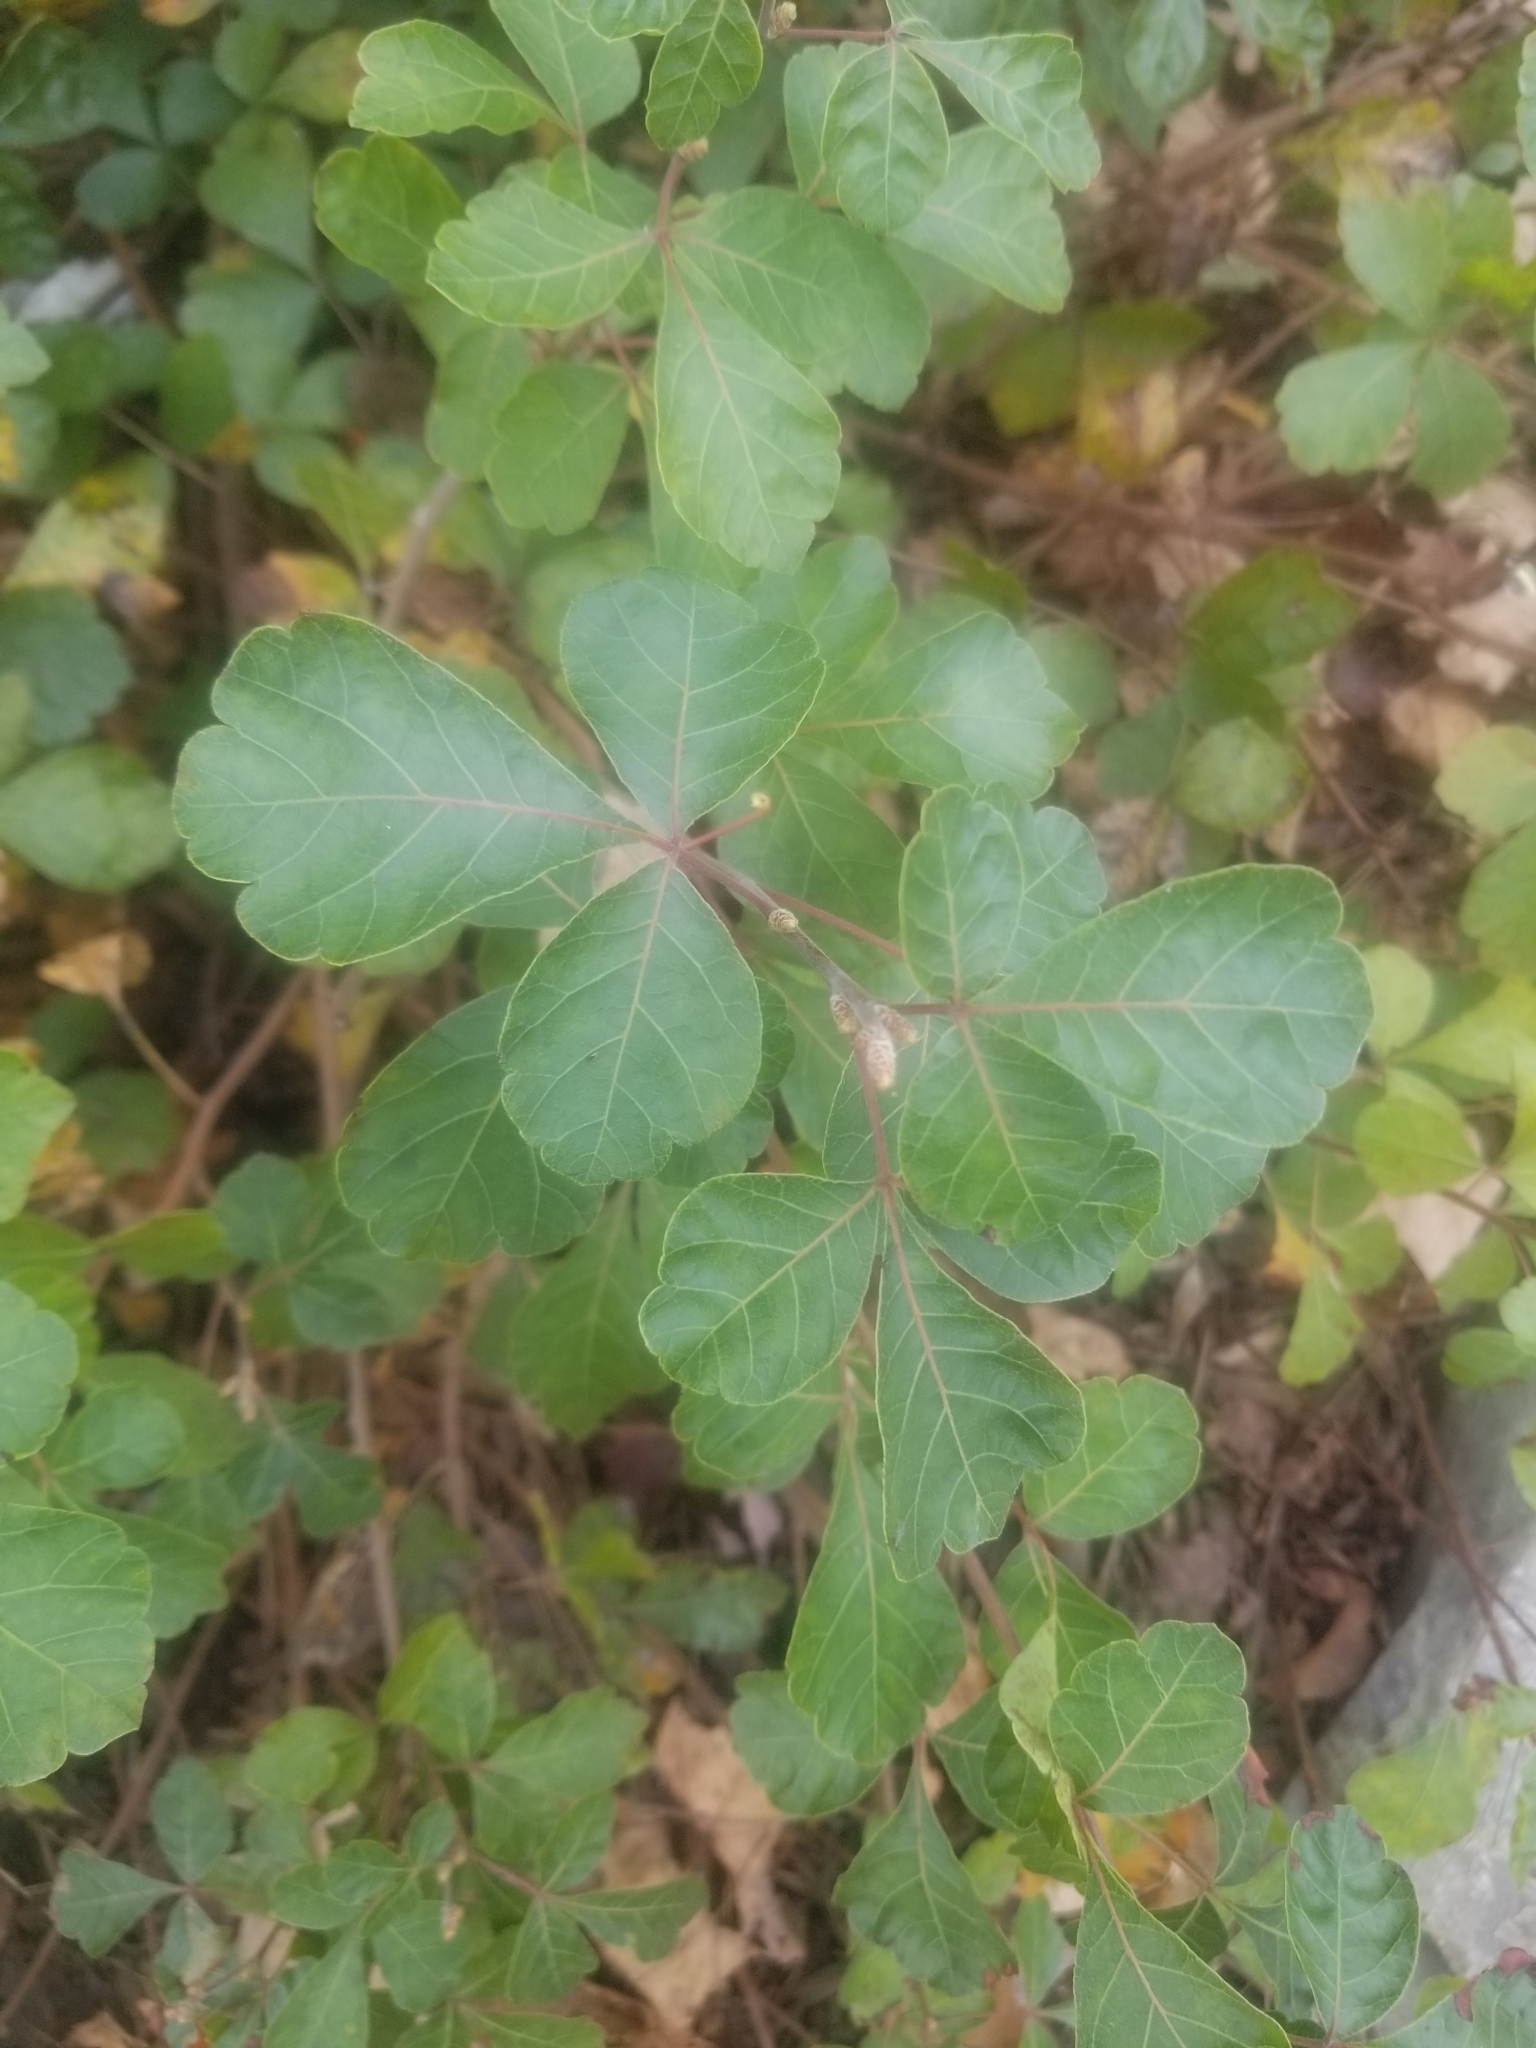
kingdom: Plantae
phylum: Tracheophyta
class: Magnoliopsida
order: Sapindales
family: Anacardiaceae
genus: Rhus
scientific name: Rhus aromatica
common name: Aromatic sumac
